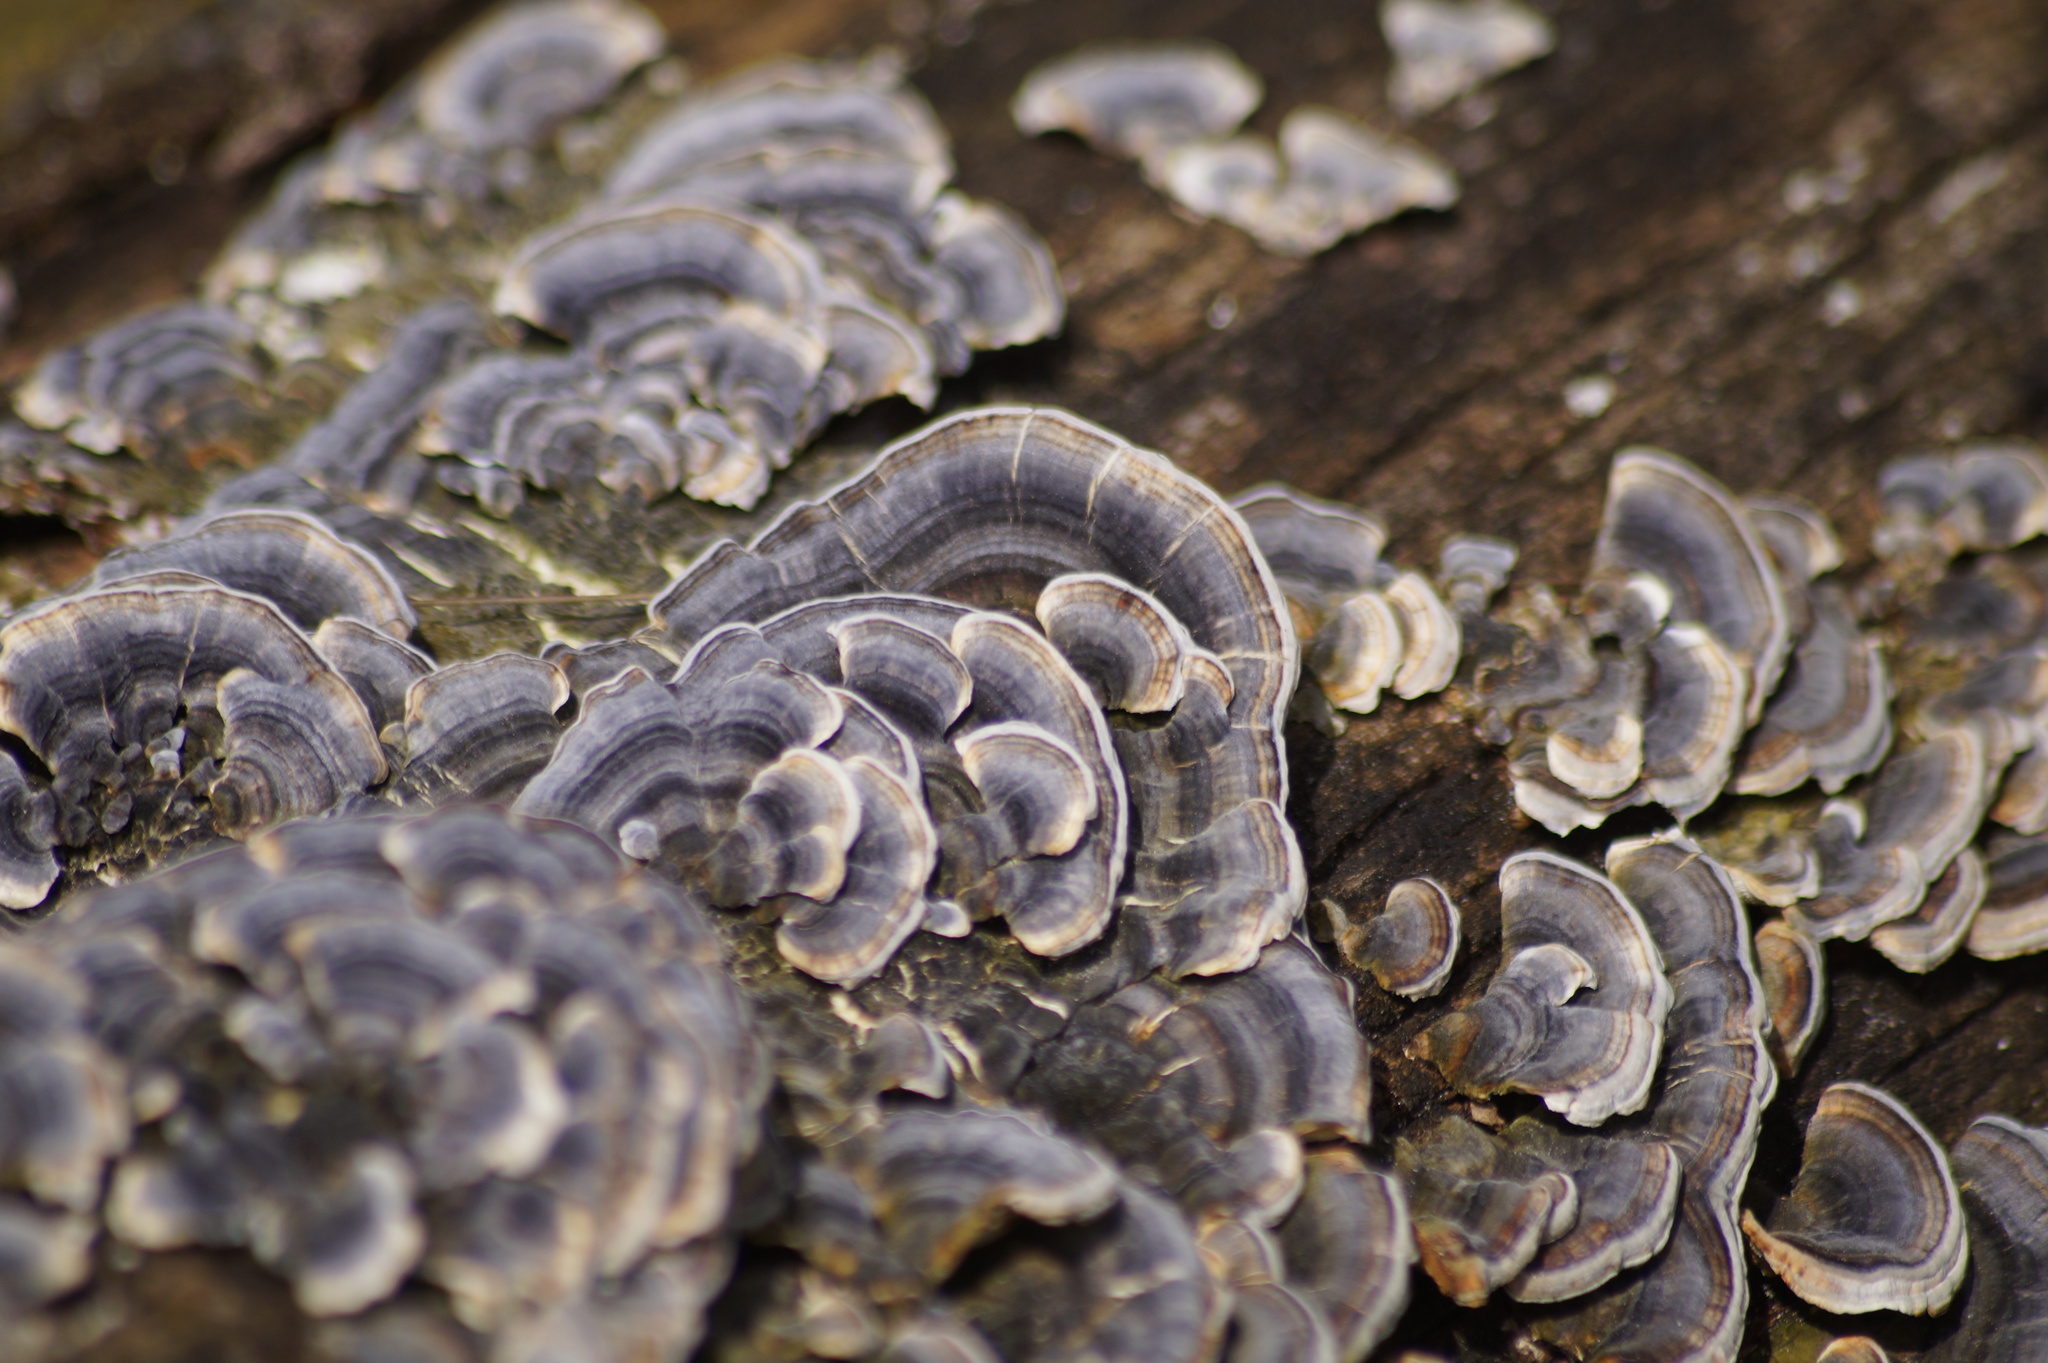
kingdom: Fungi
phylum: Basidiomycota
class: Agaricomycetes
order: Polyporales
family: Polyporaceae
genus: Trametes
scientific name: Trametes versicolor
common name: Turkeytail
